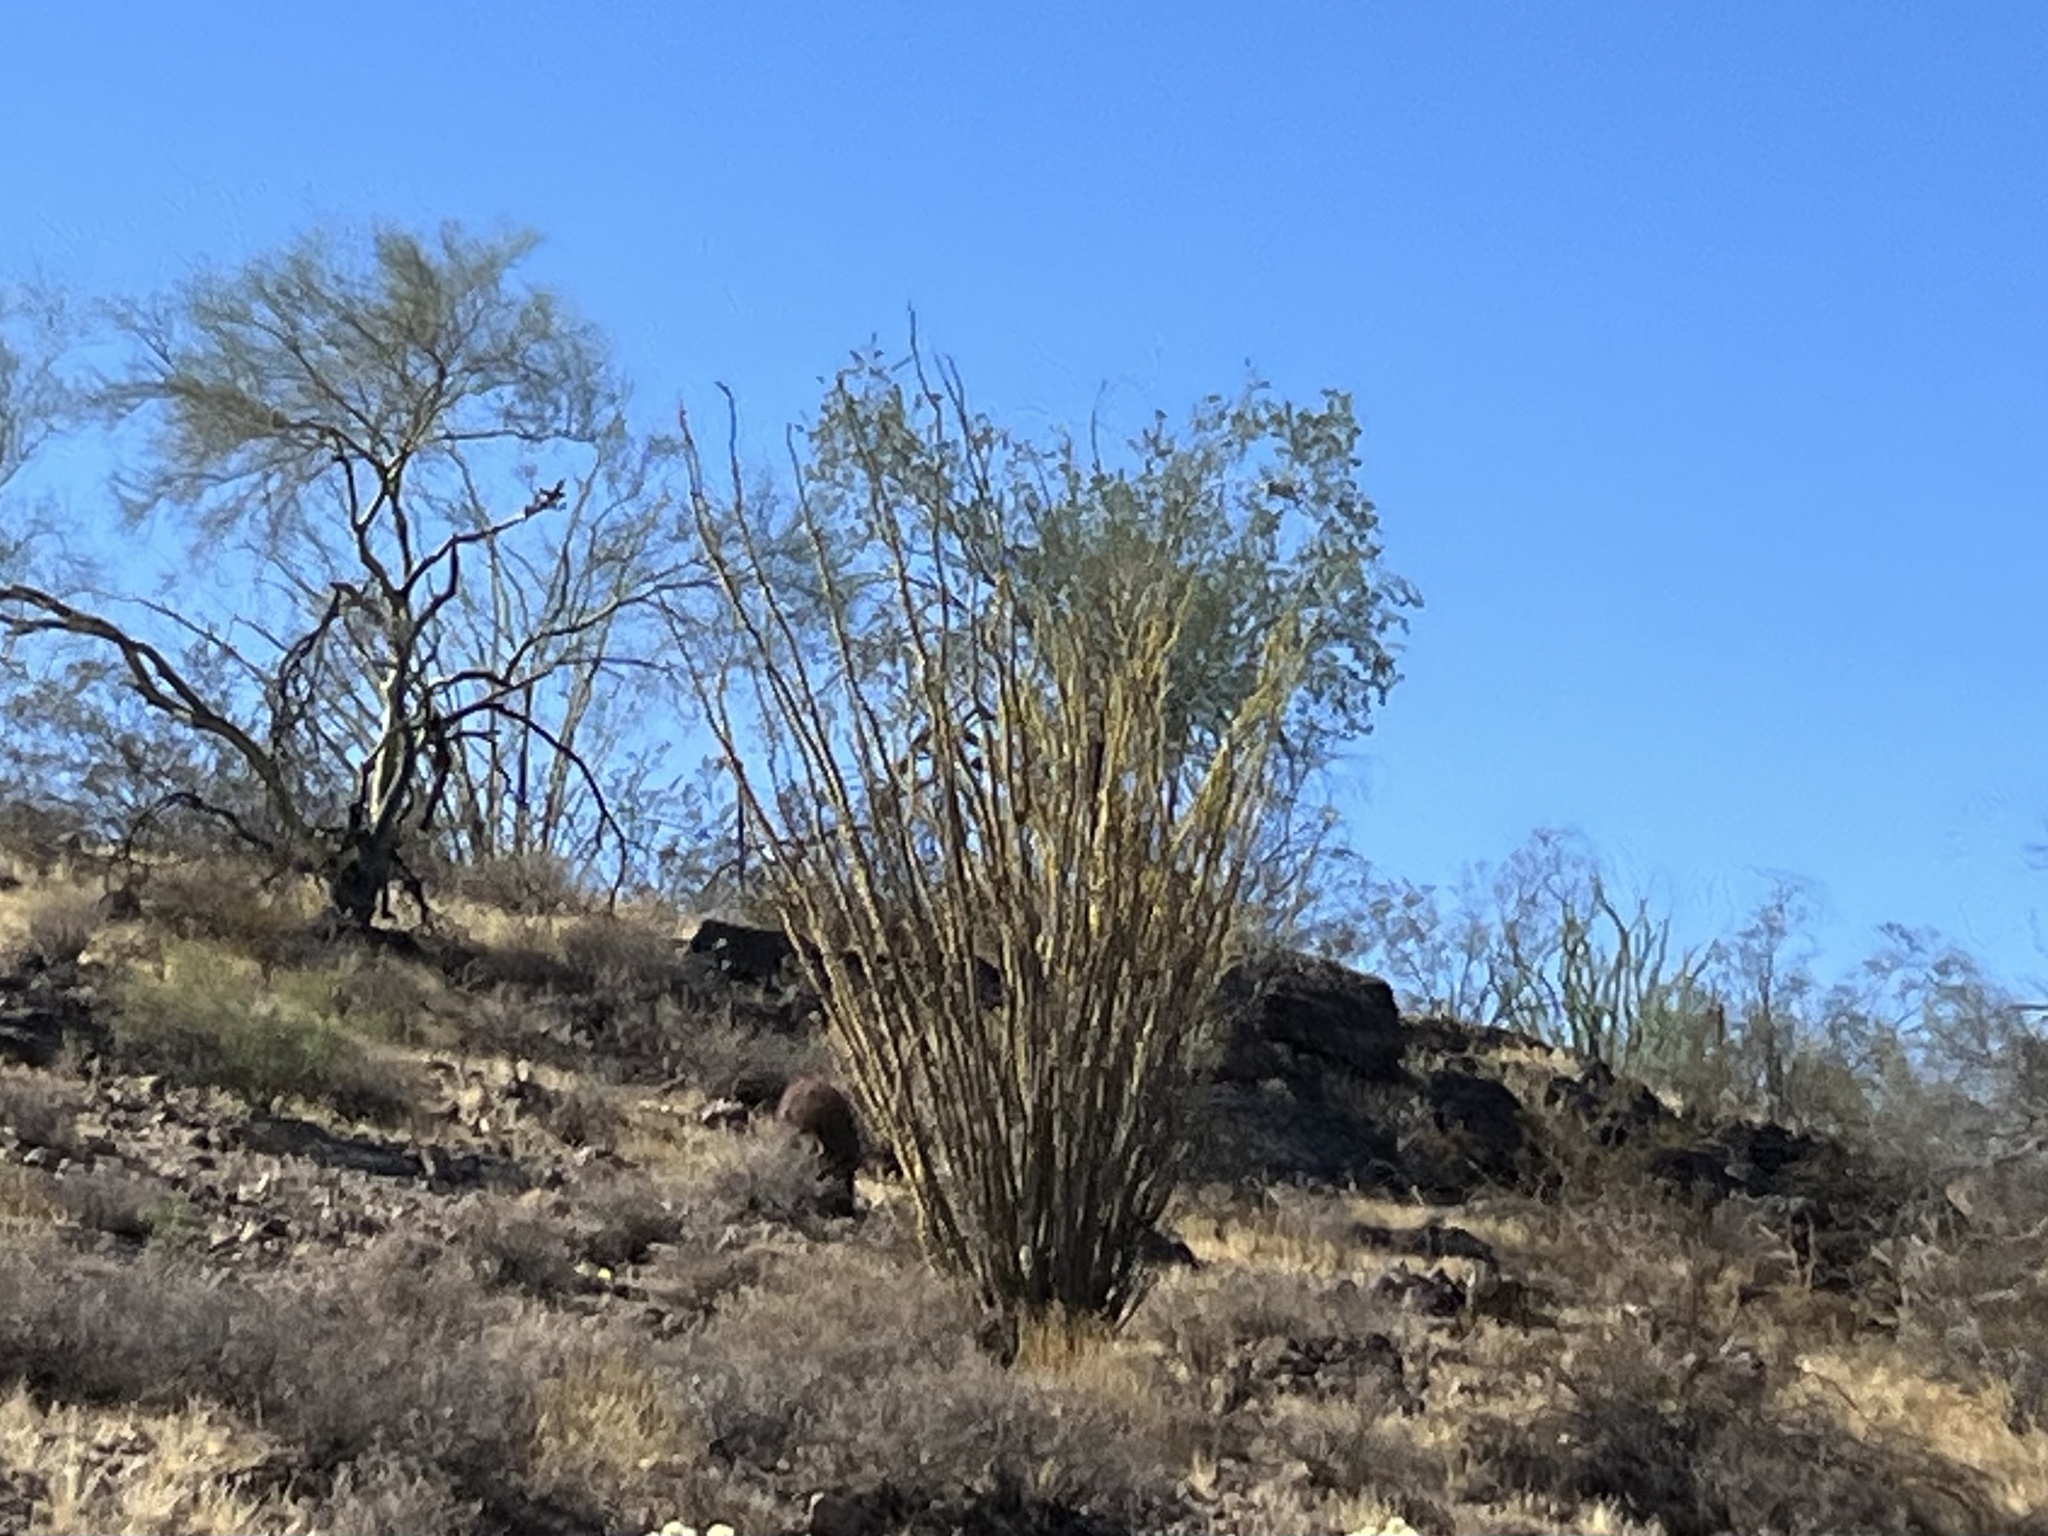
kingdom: Plantae
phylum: Tracheophyta
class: Magnoliopsida
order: Ericales
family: Fouquieriaceae
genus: Fouquieria
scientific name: Fouquieria splendens
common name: Vine-cactus
